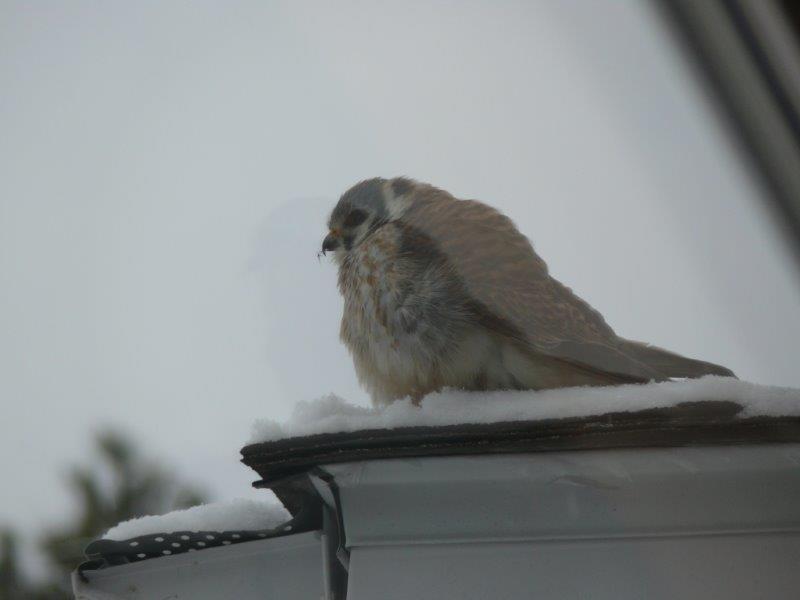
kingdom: Animalia
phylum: Chordata
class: Aves
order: Falconiformes
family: Falconidae
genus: Falco
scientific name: Falco sparverius
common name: American kestrel
